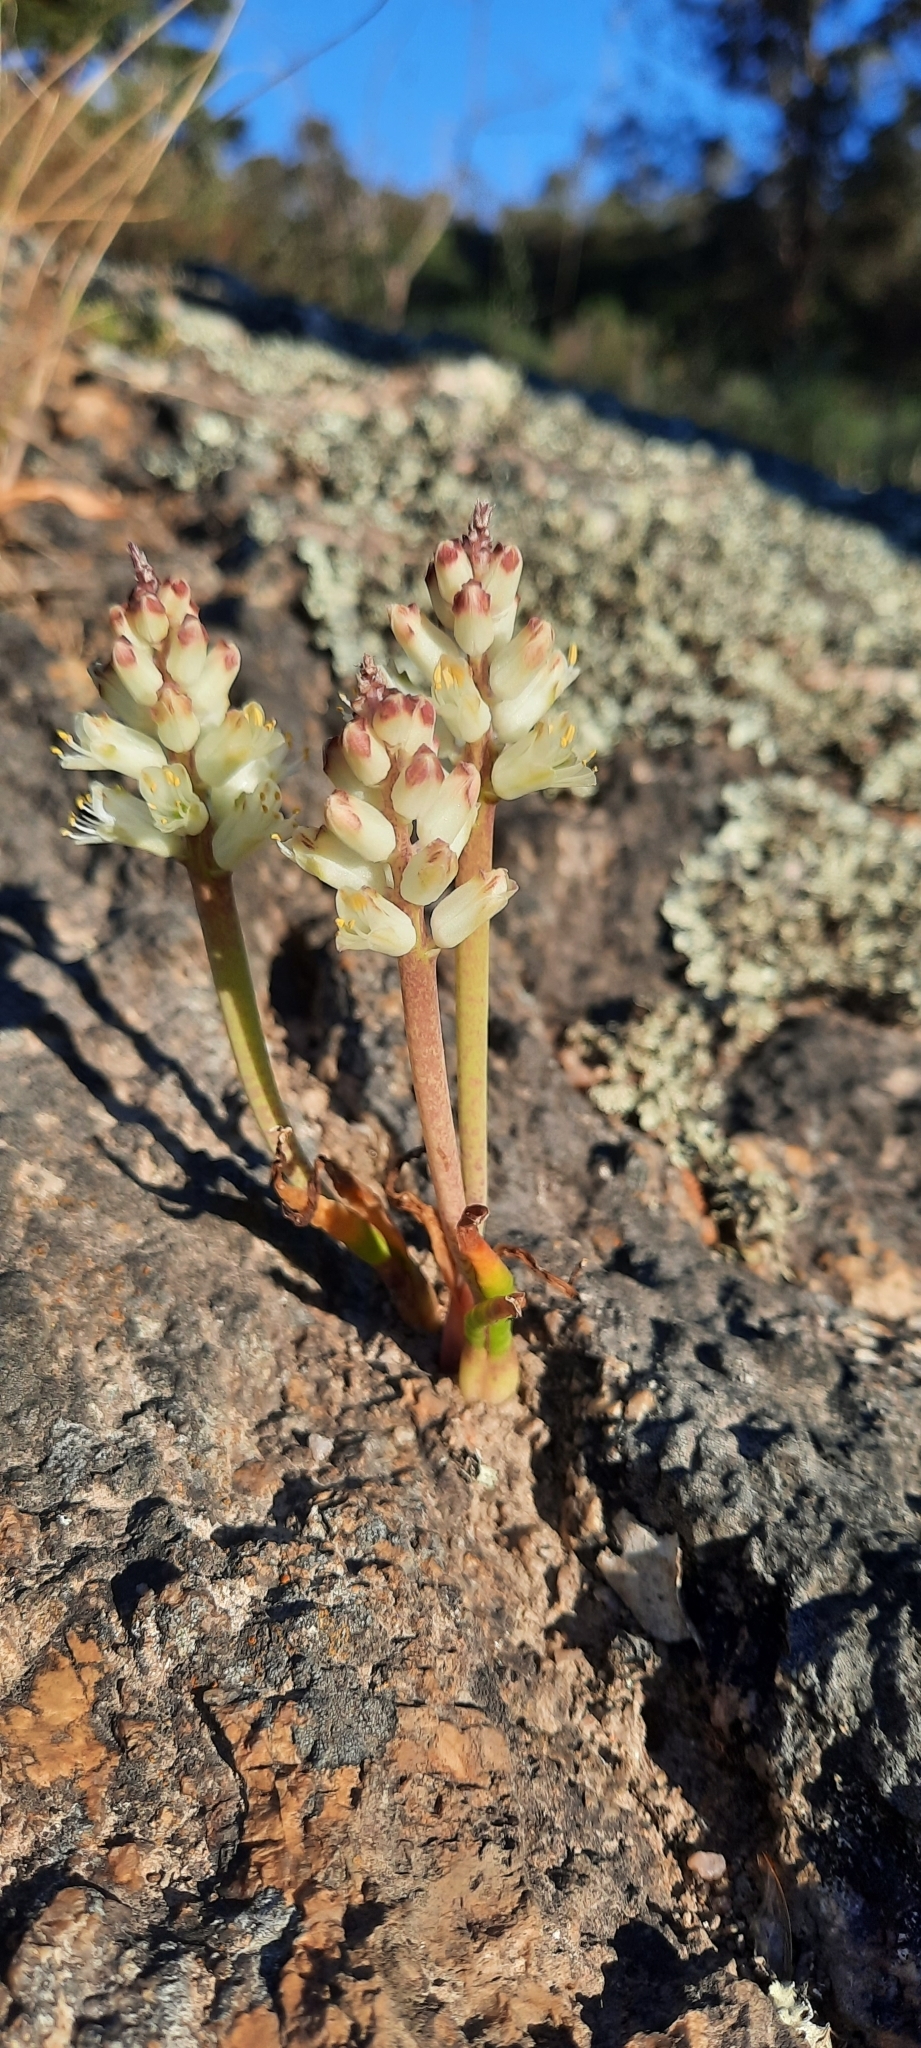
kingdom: Plantae
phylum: Tracheophyta
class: Liliopsida
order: Asparagales
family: Asparagaceae
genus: Lachenalia
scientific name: Lachenalia pallida
